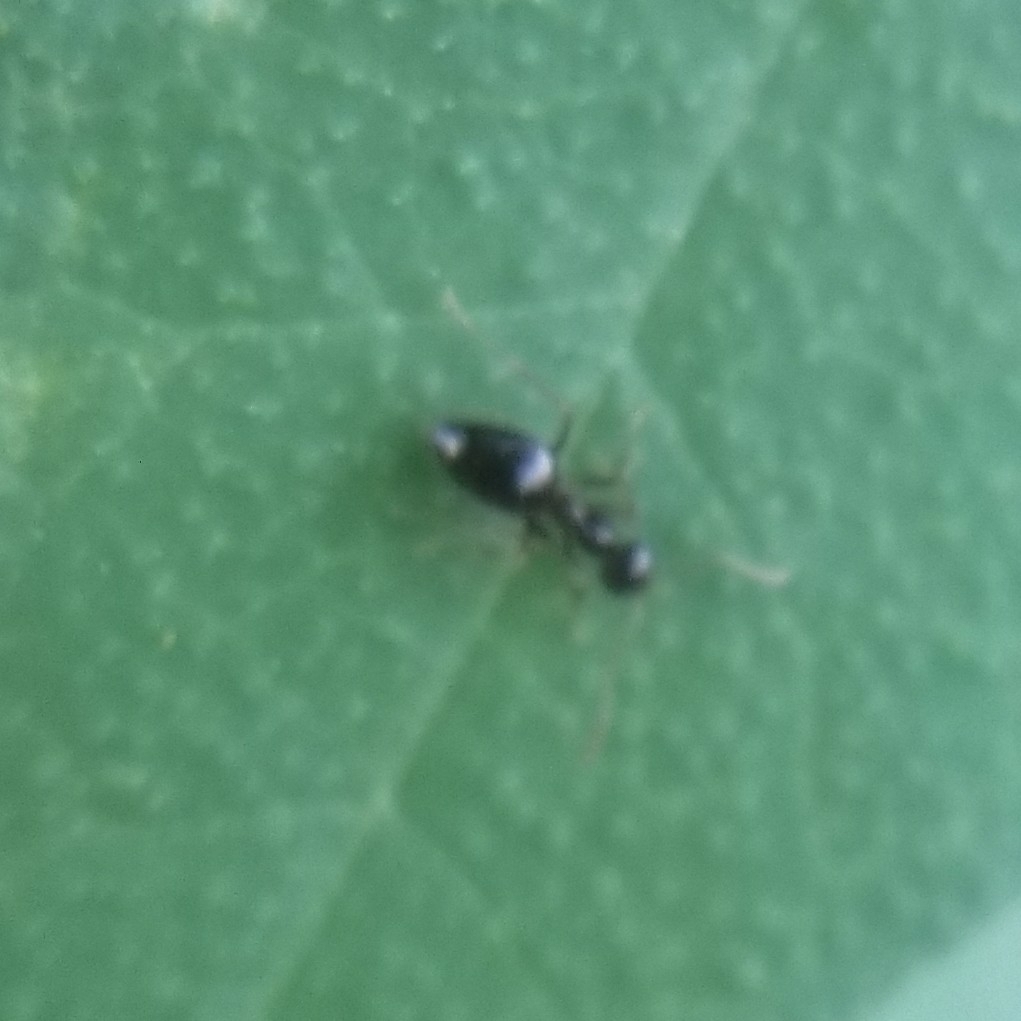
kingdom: Animalia
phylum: Arthropoda
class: Insecta
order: Hymenoptera
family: Formicidae
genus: Prenolepis
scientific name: Prenolepis imparis
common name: Small honey ant
